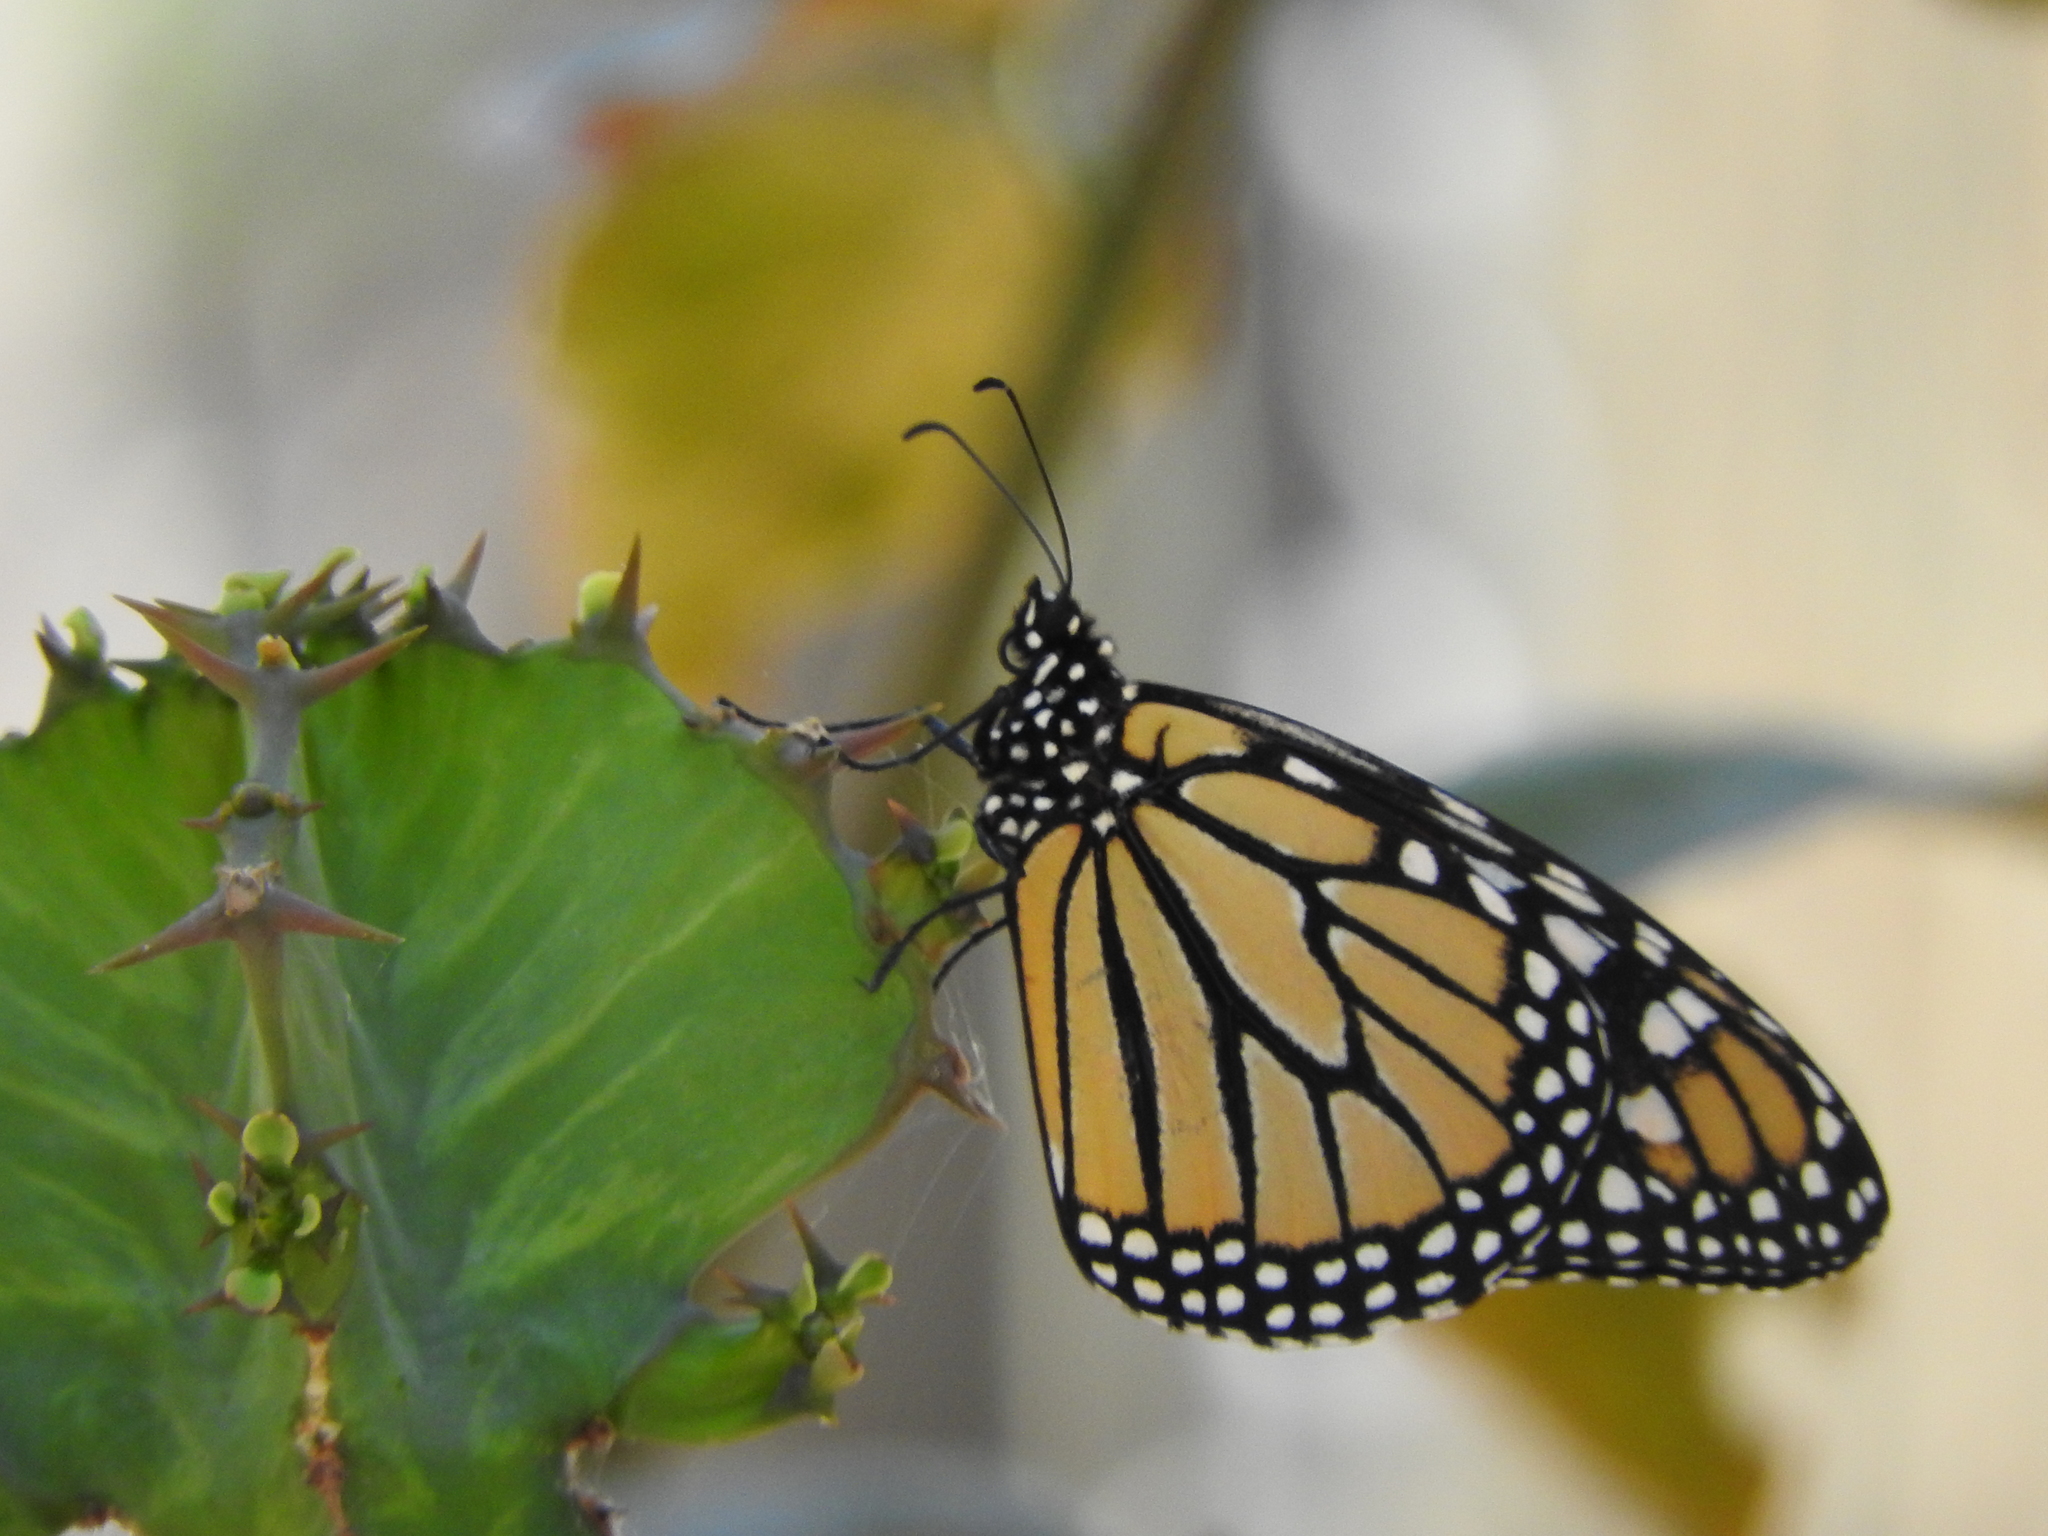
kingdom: Animalia
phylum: Arthropoda
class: Insecta
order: Lepidoptera
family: Nymphalidae
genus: Danaus
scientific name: Danaus plexippus
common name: Monarch
